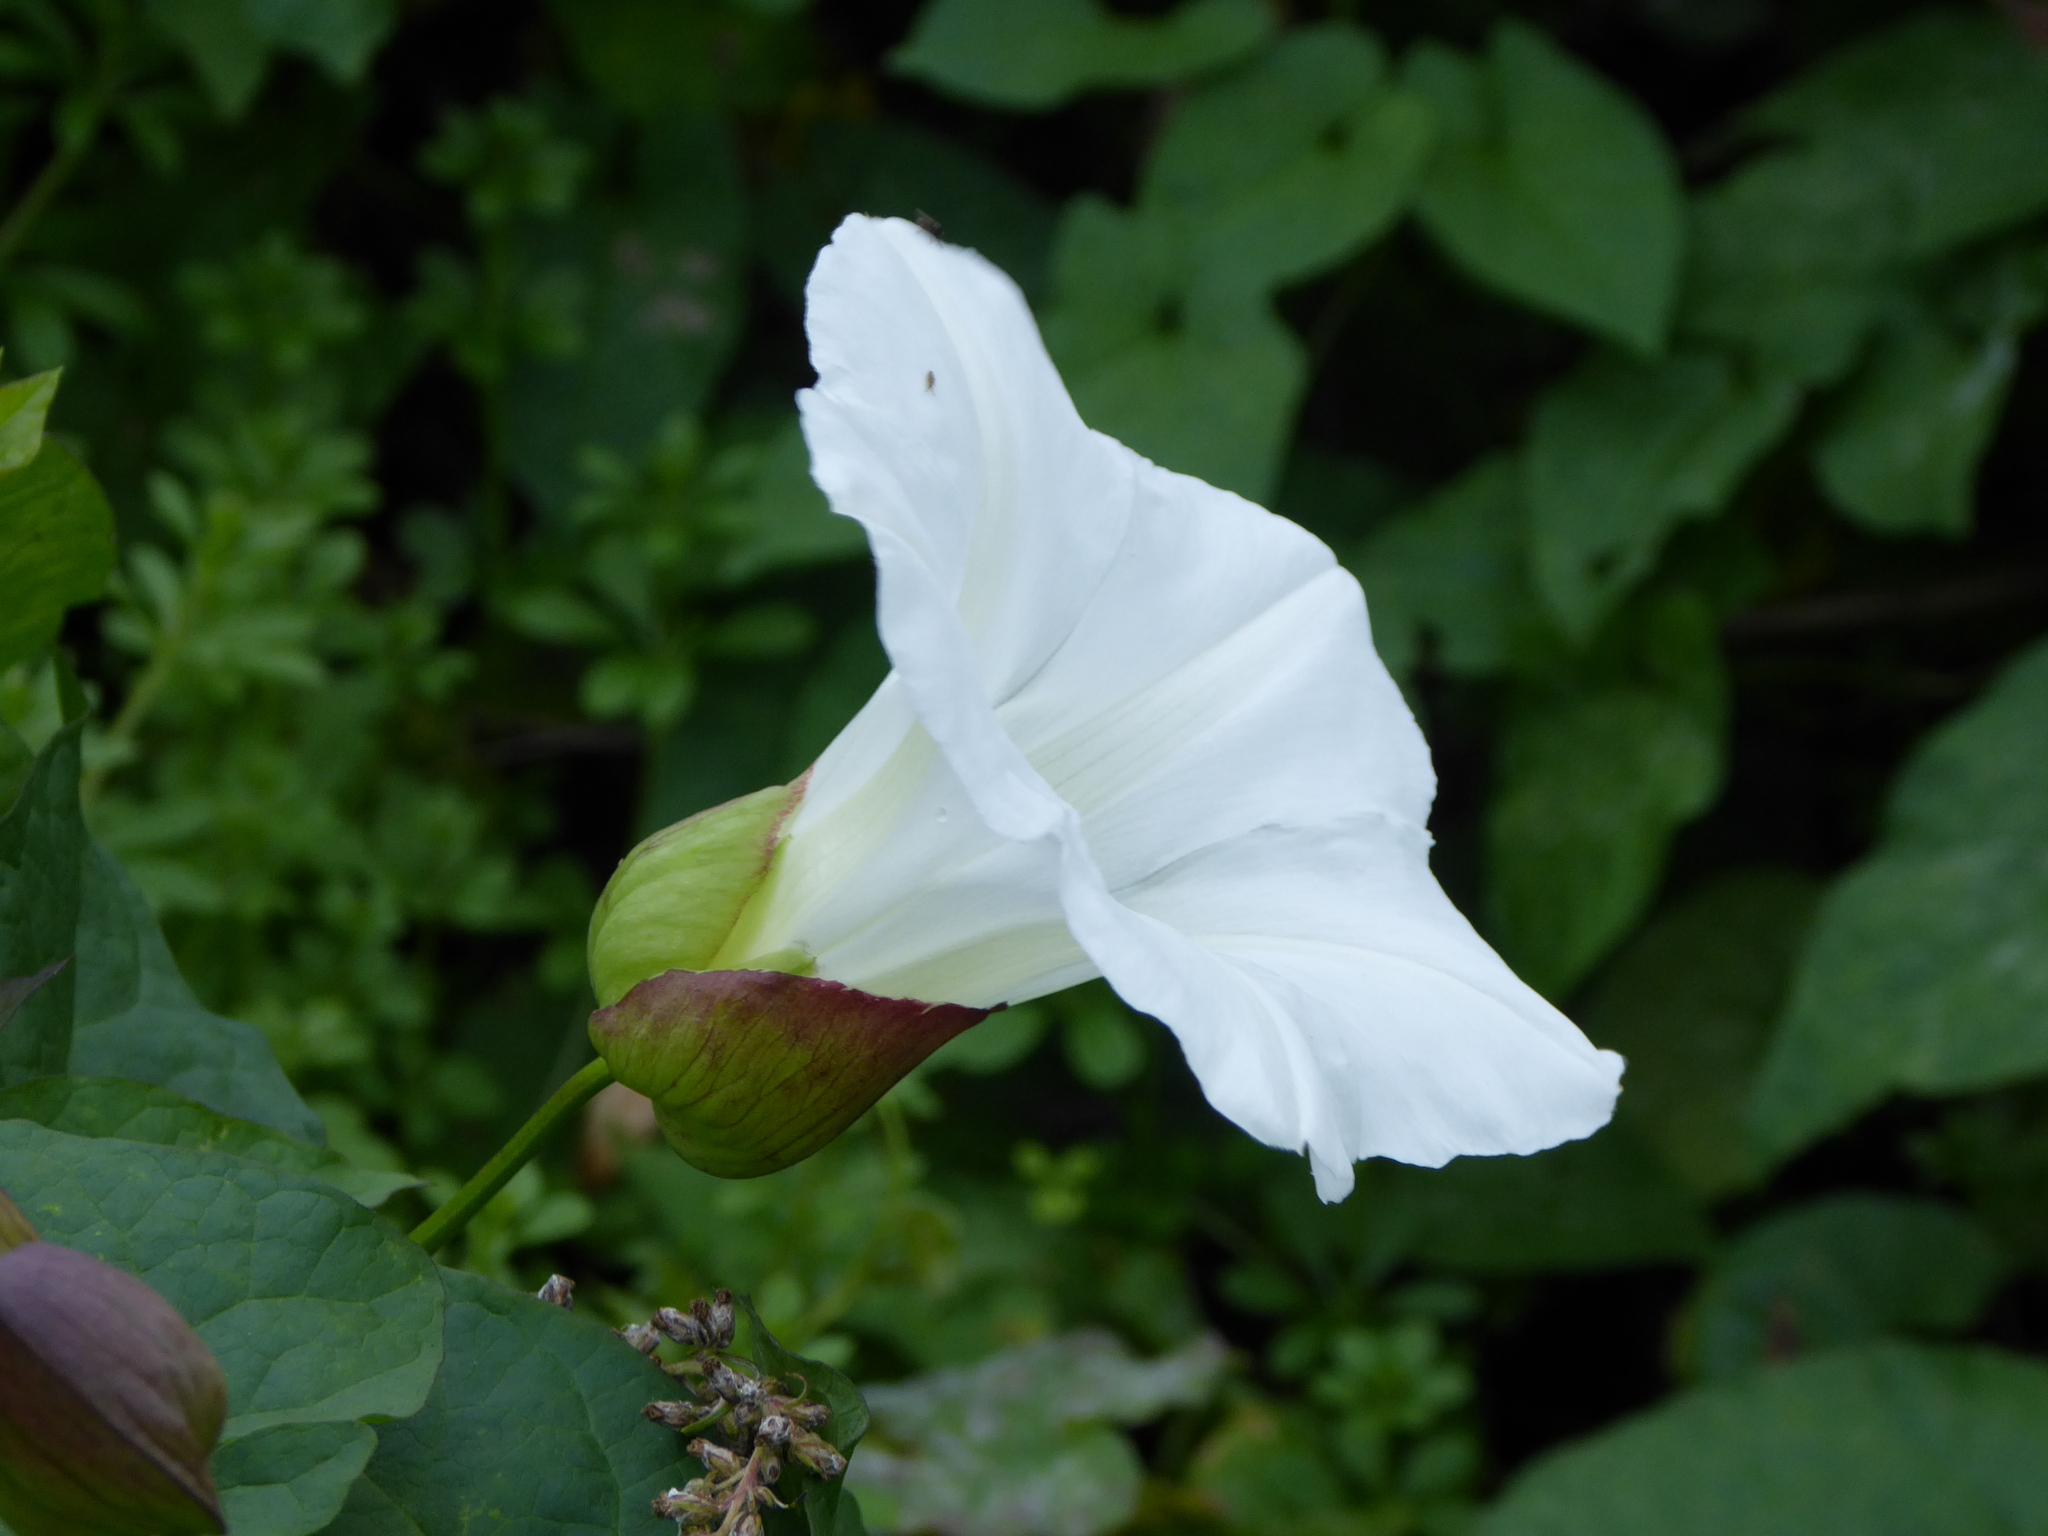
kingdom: Plantae
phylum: Tracheophyta
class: Magnoliopsida
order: Solanales
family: Convolvulaceae
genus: Calystegia
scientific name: Calystegia silvatica
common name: Large bindweed
